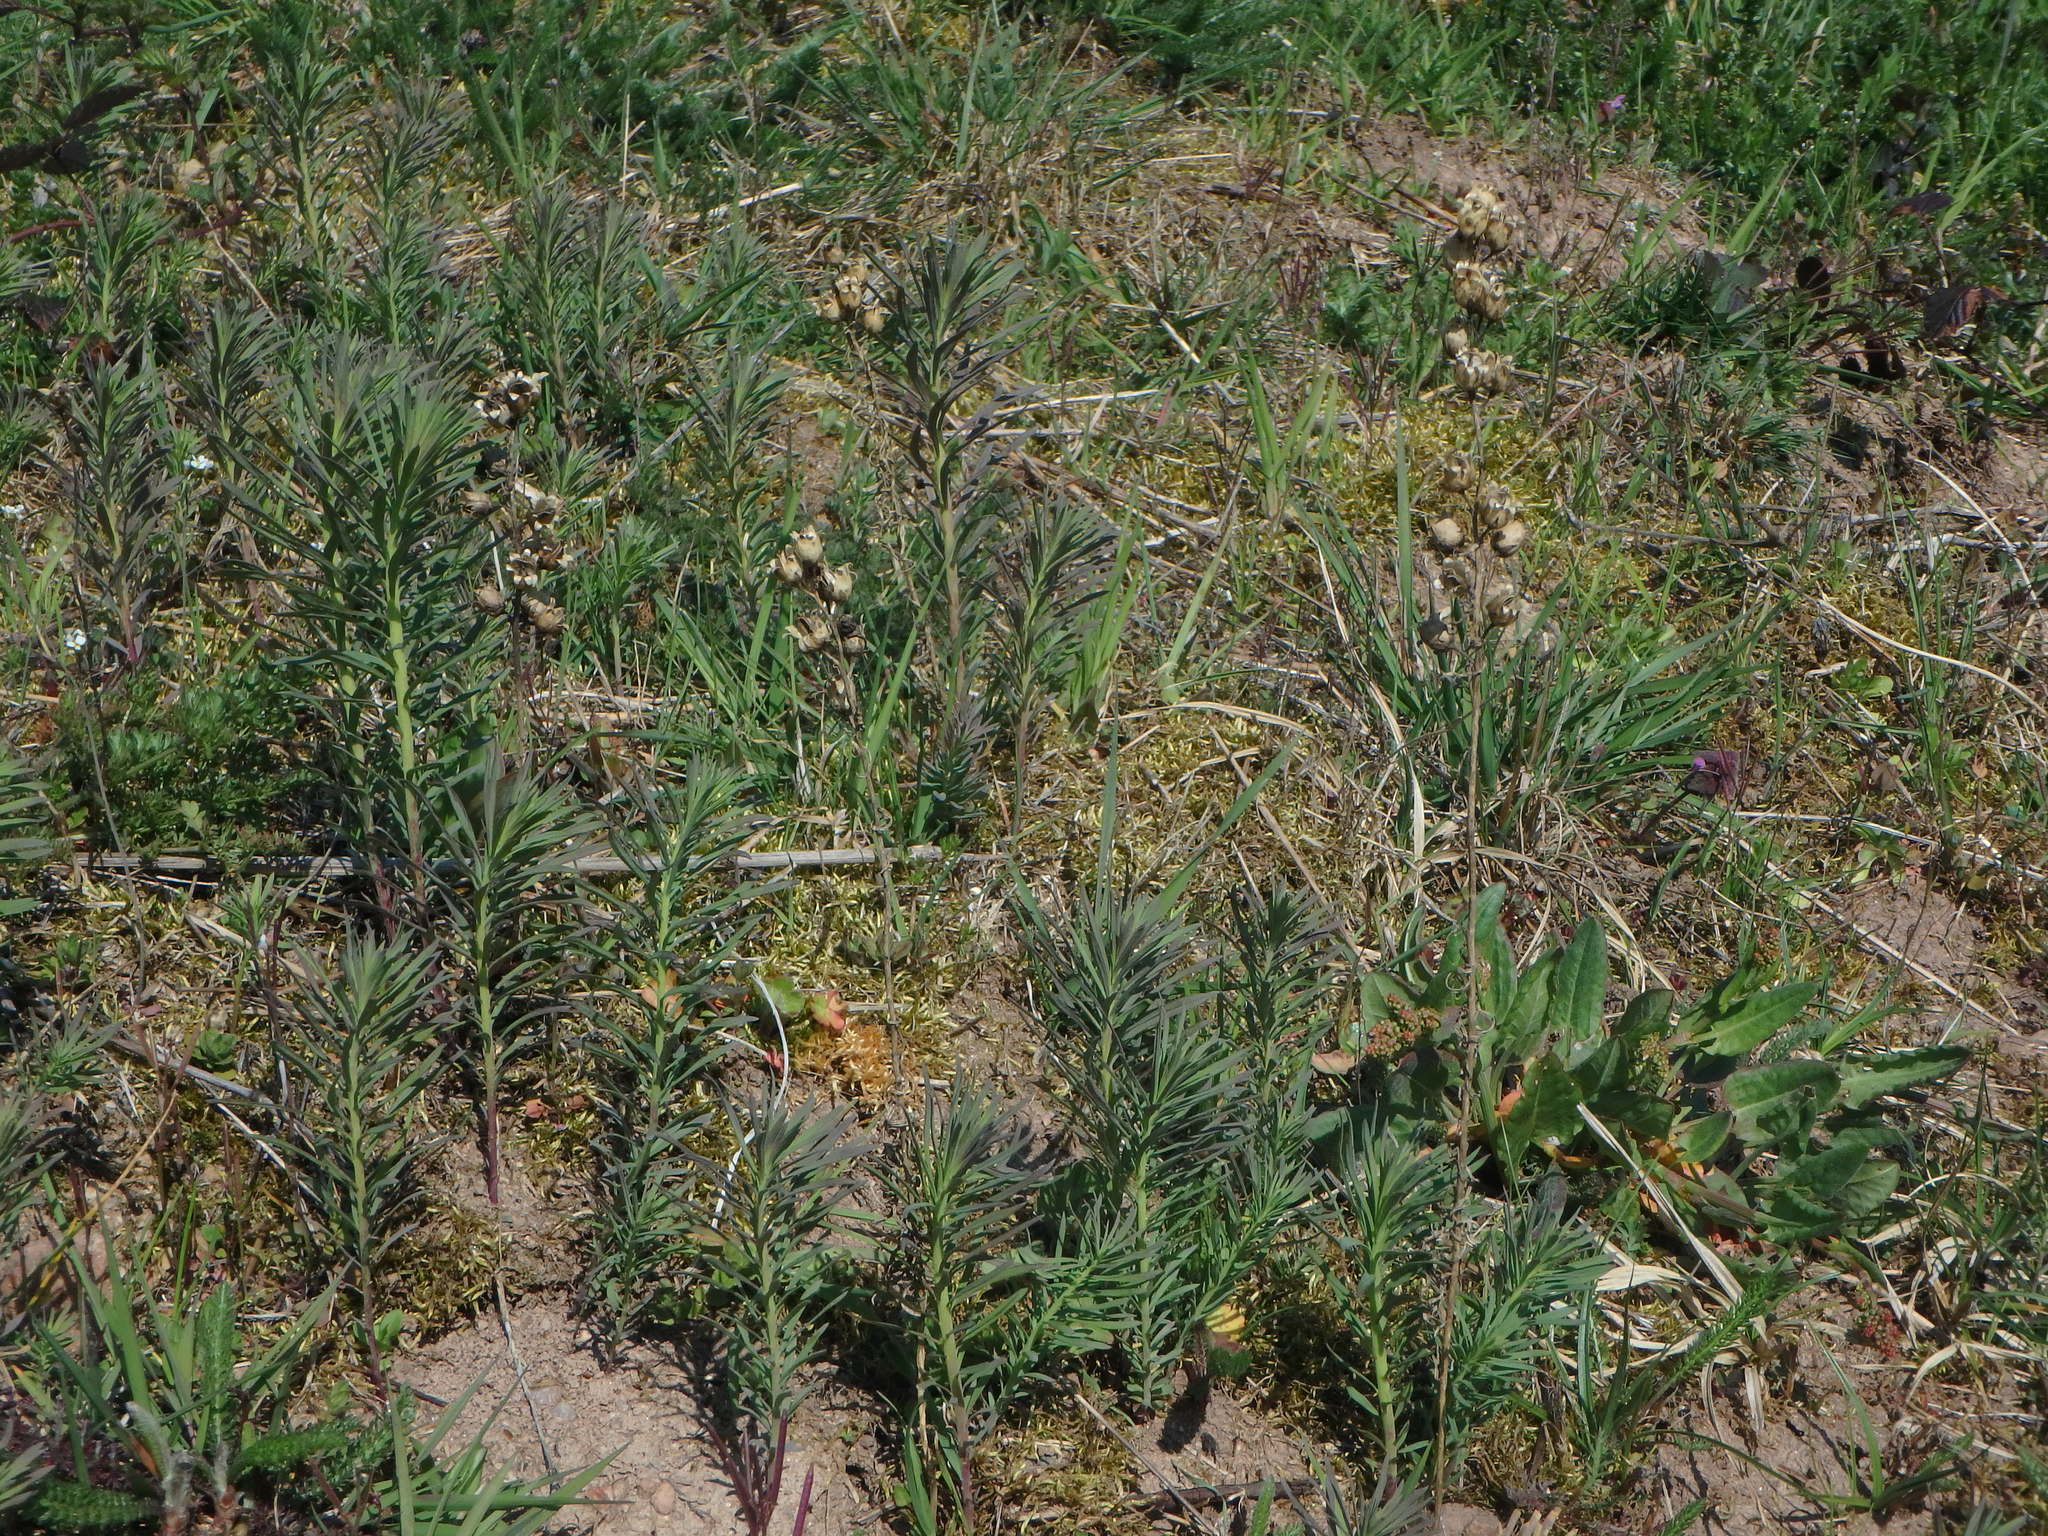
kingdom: Plantae
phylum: Tracheophyta
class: Magnoliopsida
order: Lamiales
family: Plantaginaceae
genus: Linaria
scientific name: Linaria vulgaris
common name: Butter and eggs
